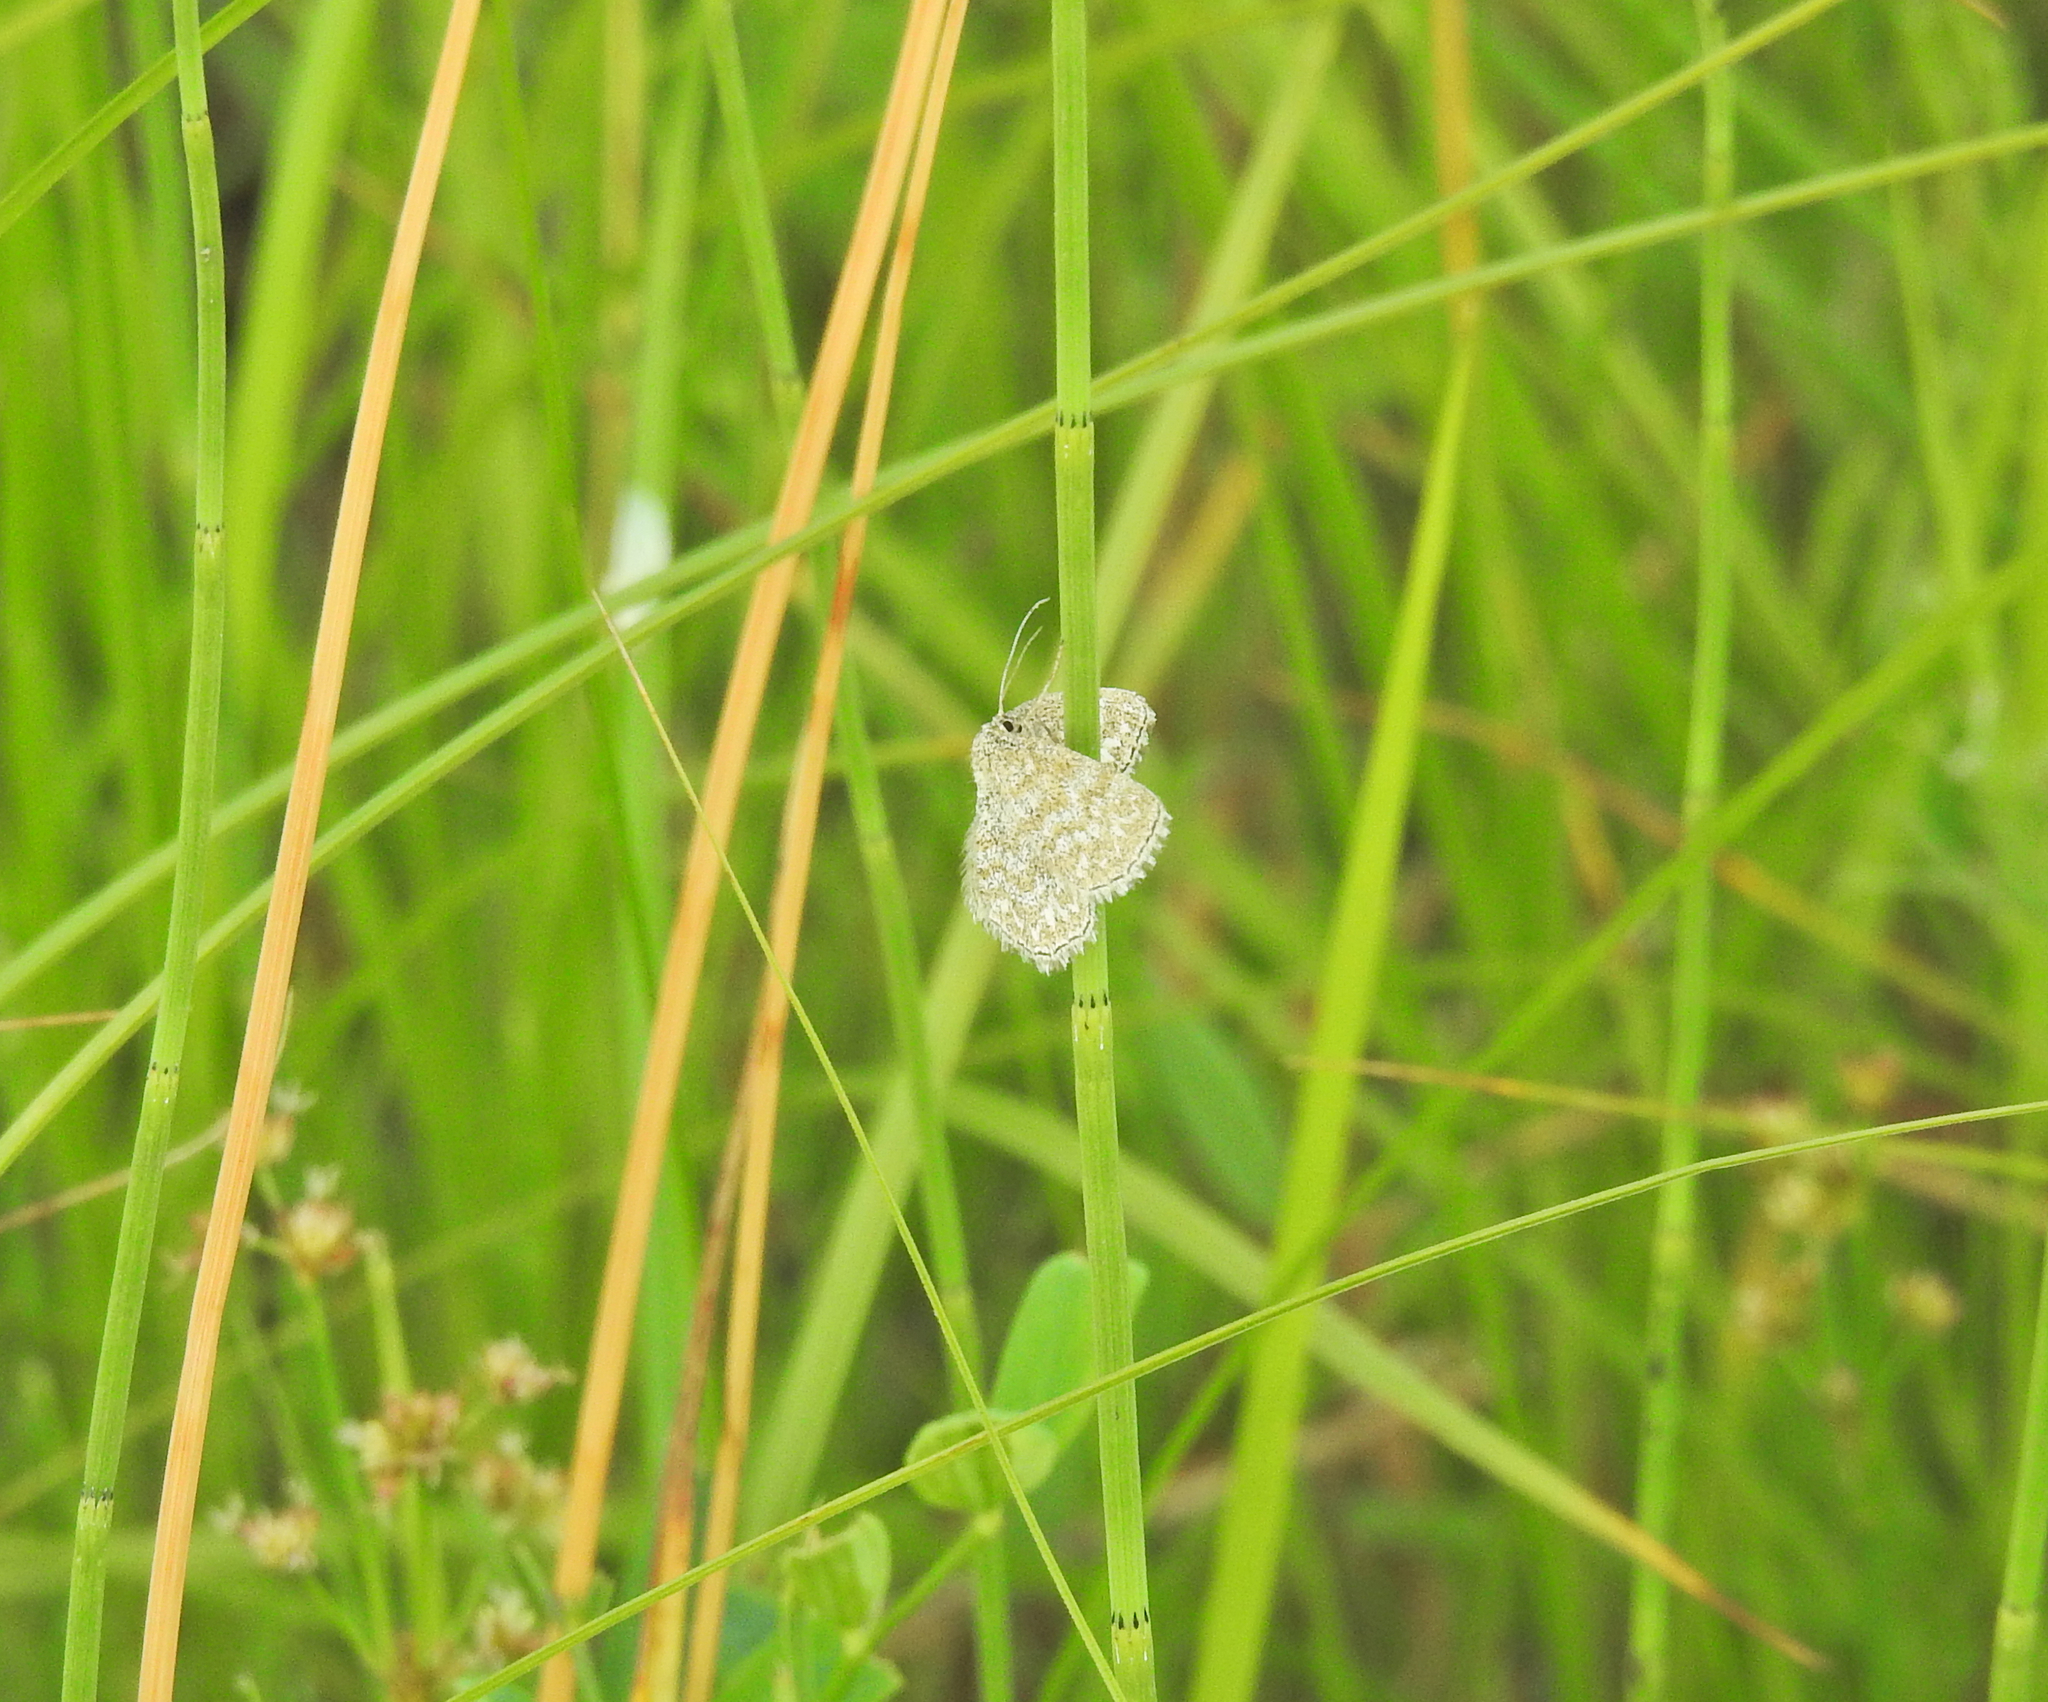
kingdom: Animalia
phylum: Arthropoda
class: Insecta
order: Lepidoptera
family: Geometridae
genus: Scopula
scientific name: Scopula immorata
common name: Lewes wave
